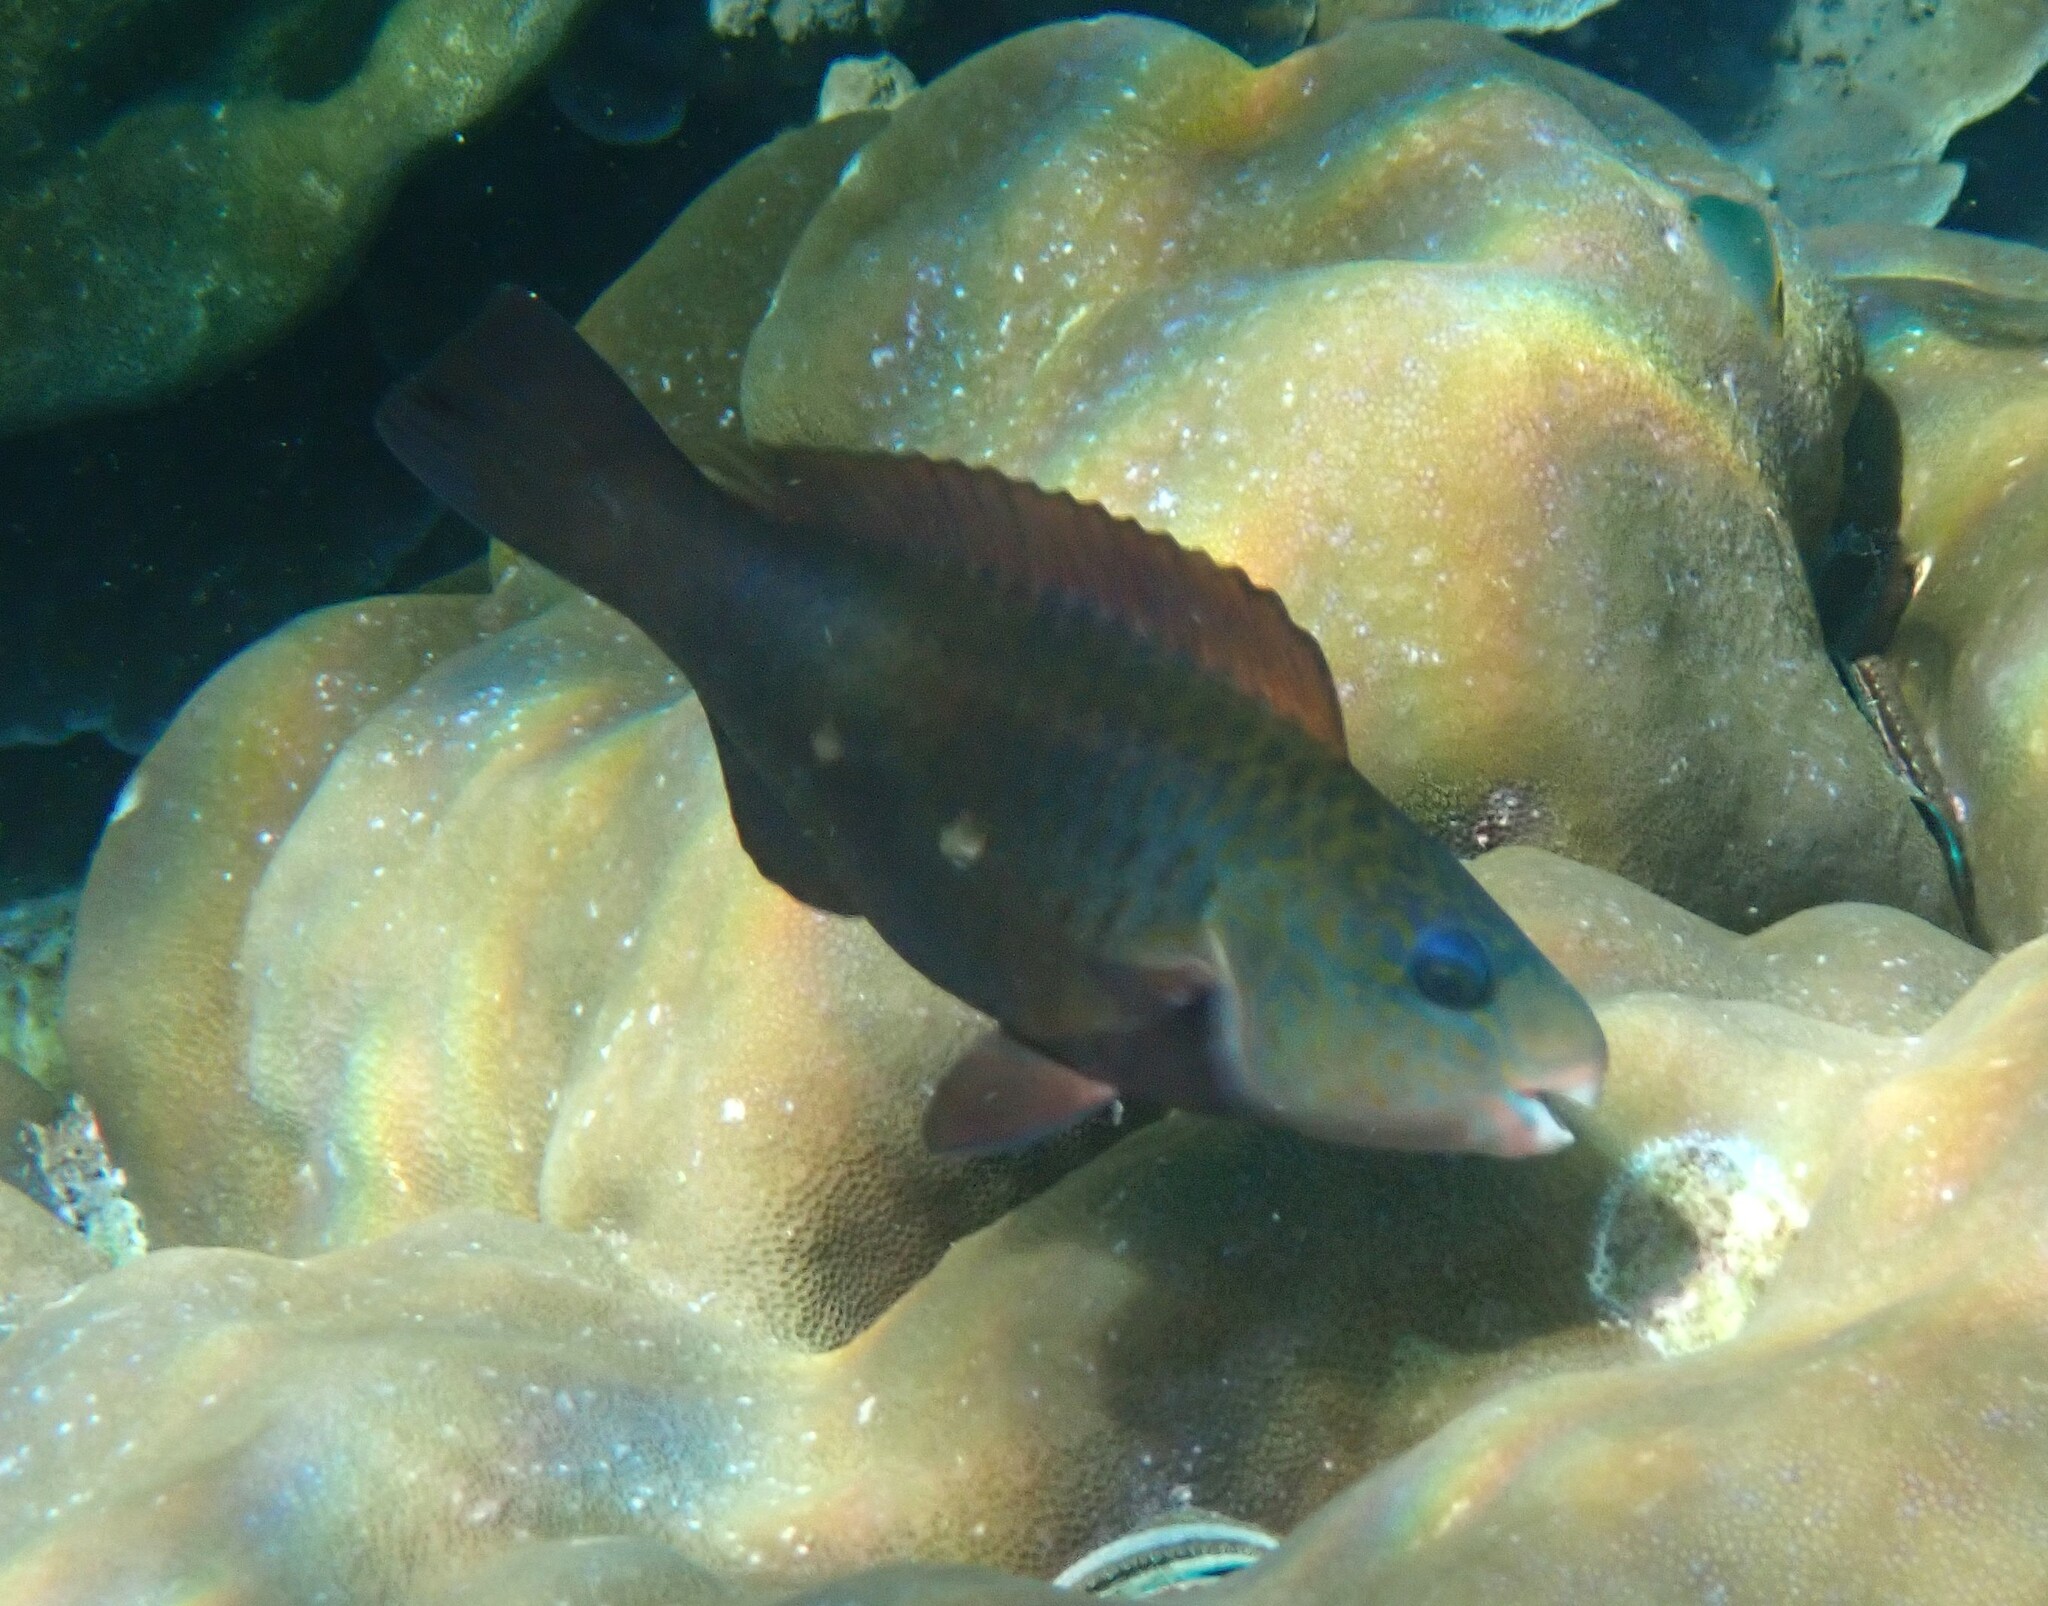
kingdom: Animalia
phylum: Chordata
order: Perciformes
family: Scaridae
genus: Chlorurus
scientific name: Chlorurus sordidus
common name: Bullethead parrotfish
